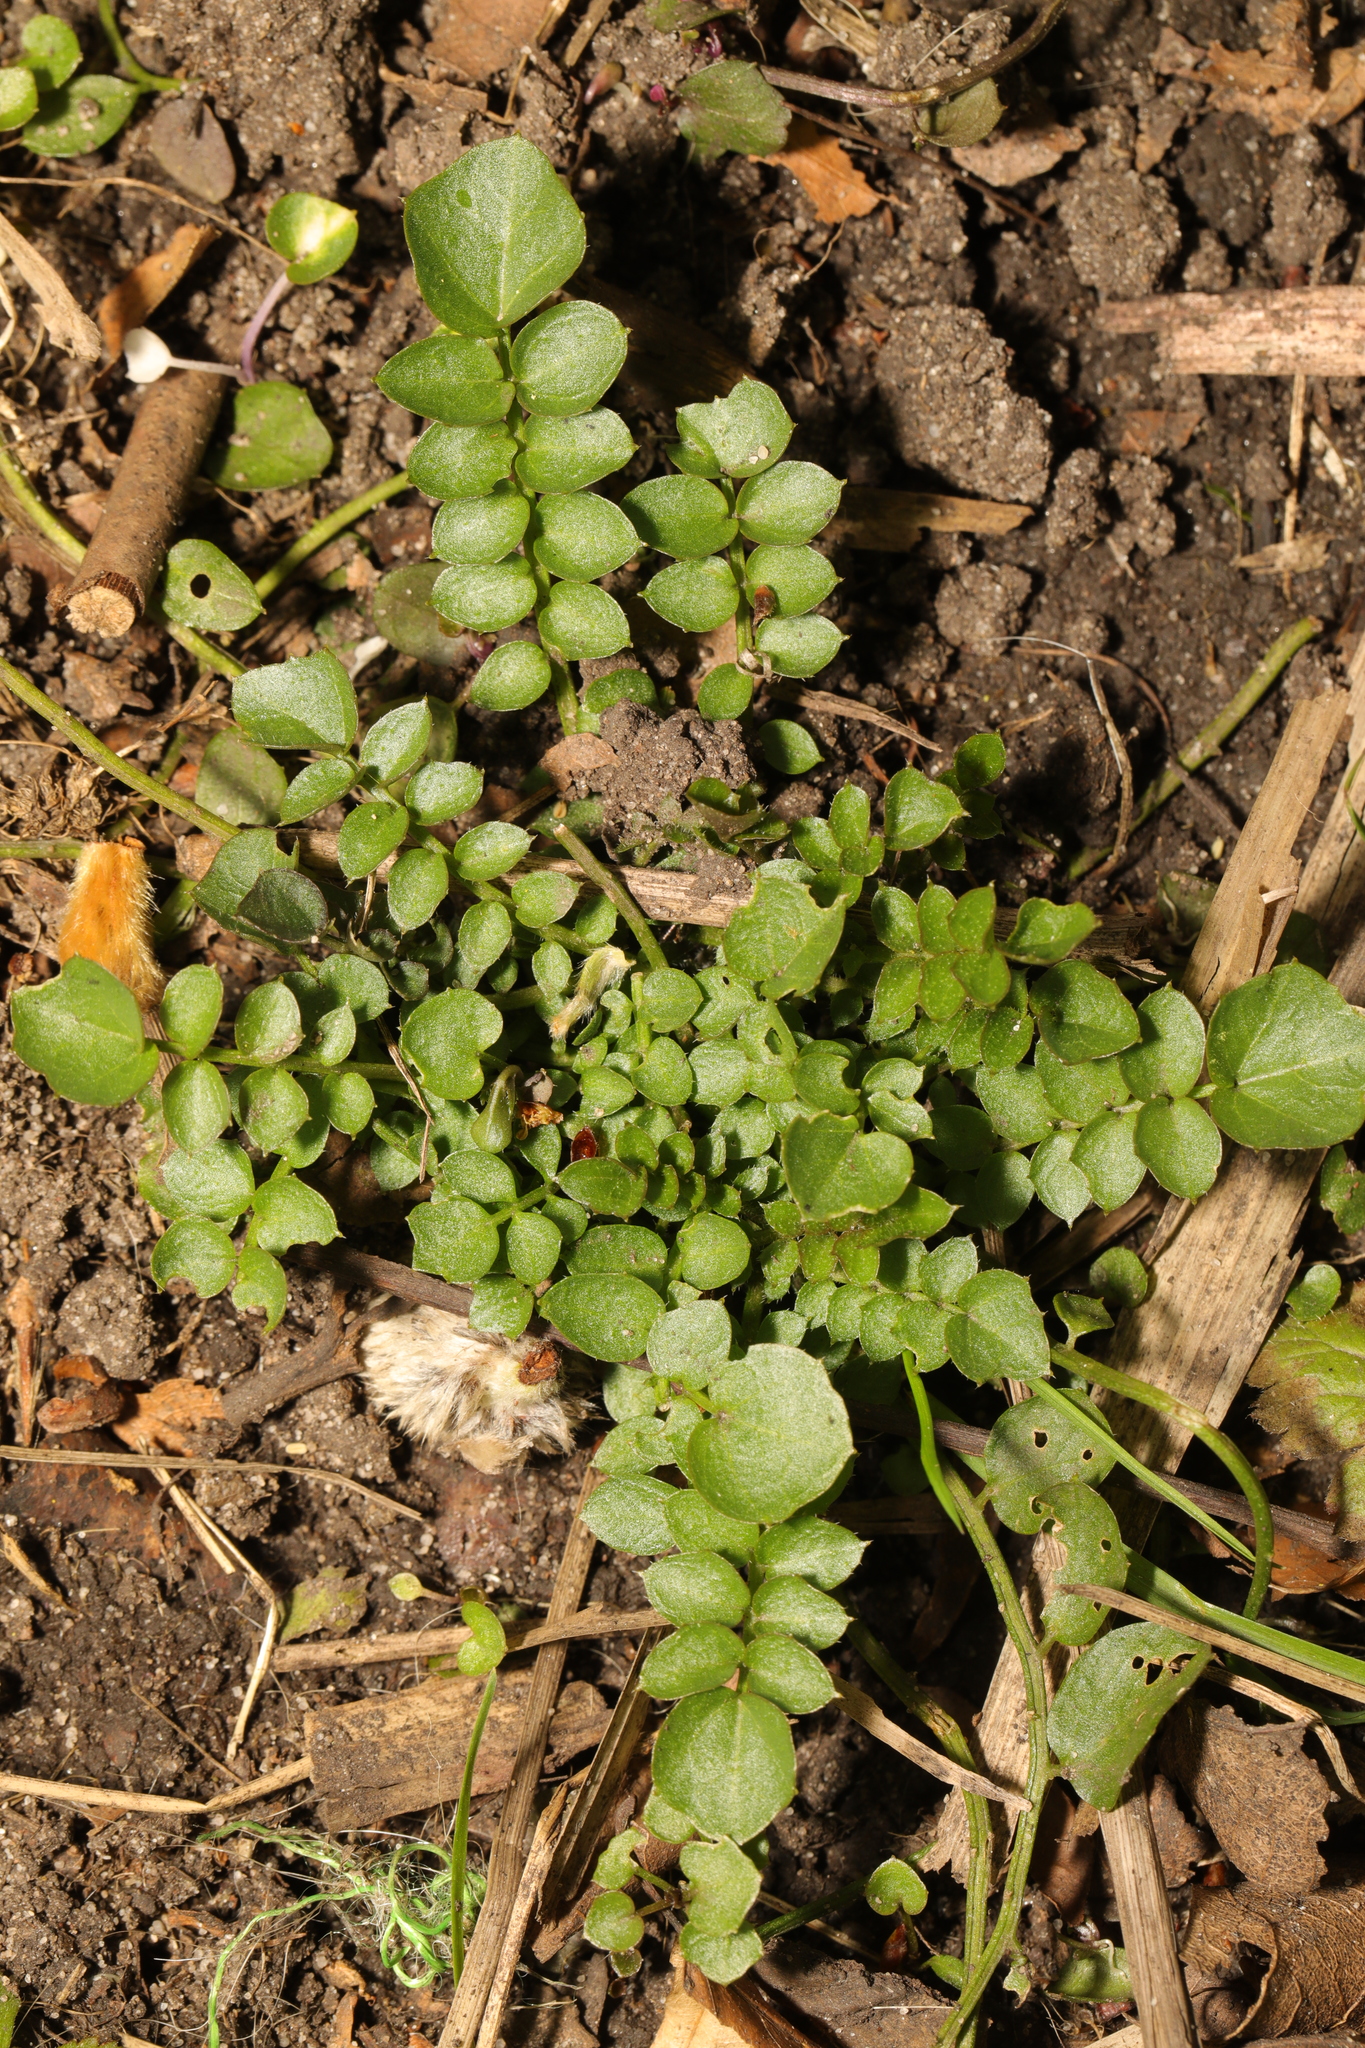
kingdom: Plantae
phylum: Tracheophyta
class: Magnoliopsida
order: Brassicales
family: Brassicaceae
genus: Cardamine
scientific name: Cardamine hirsuta
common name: Hairy bittercress
